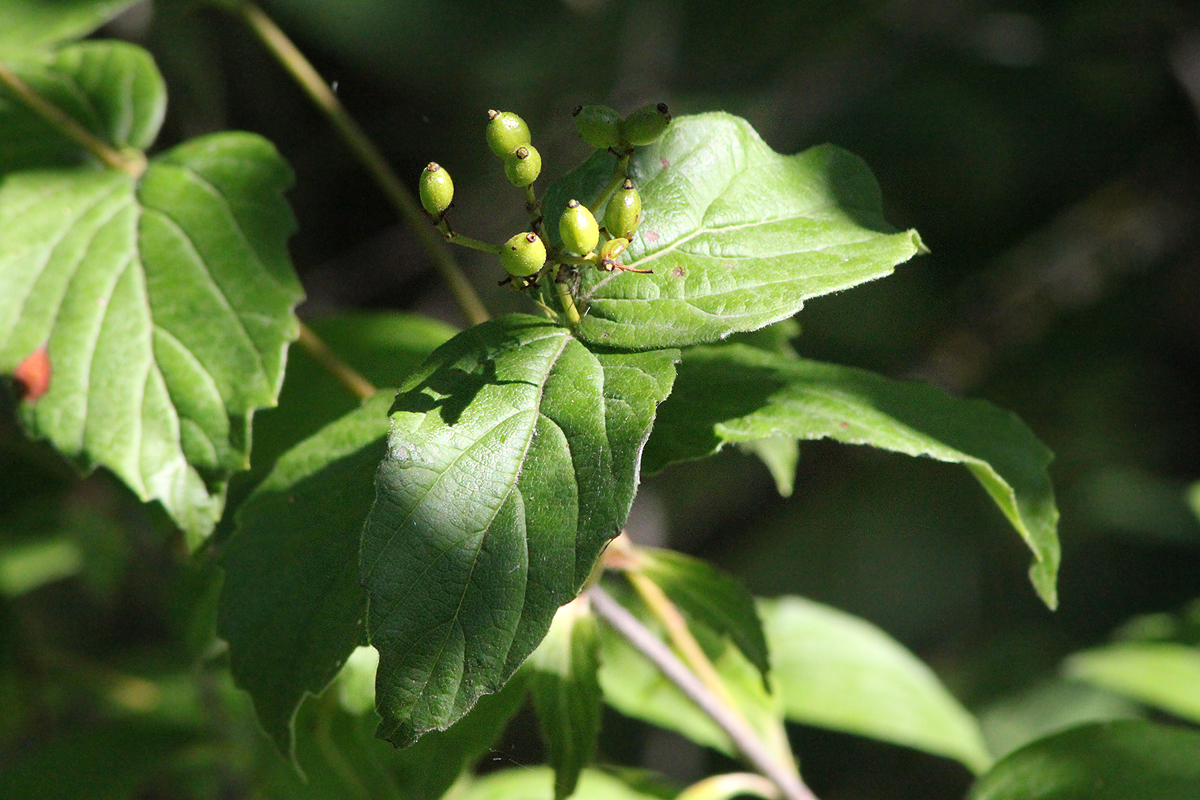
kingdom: Plantae
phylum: Tracheophyta
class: Magnoliopsida
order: Dipsacales
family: Viburnaceae
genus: Viburnum
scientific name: Viburnum rafinesqueanum
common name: Downy arrow-wood
